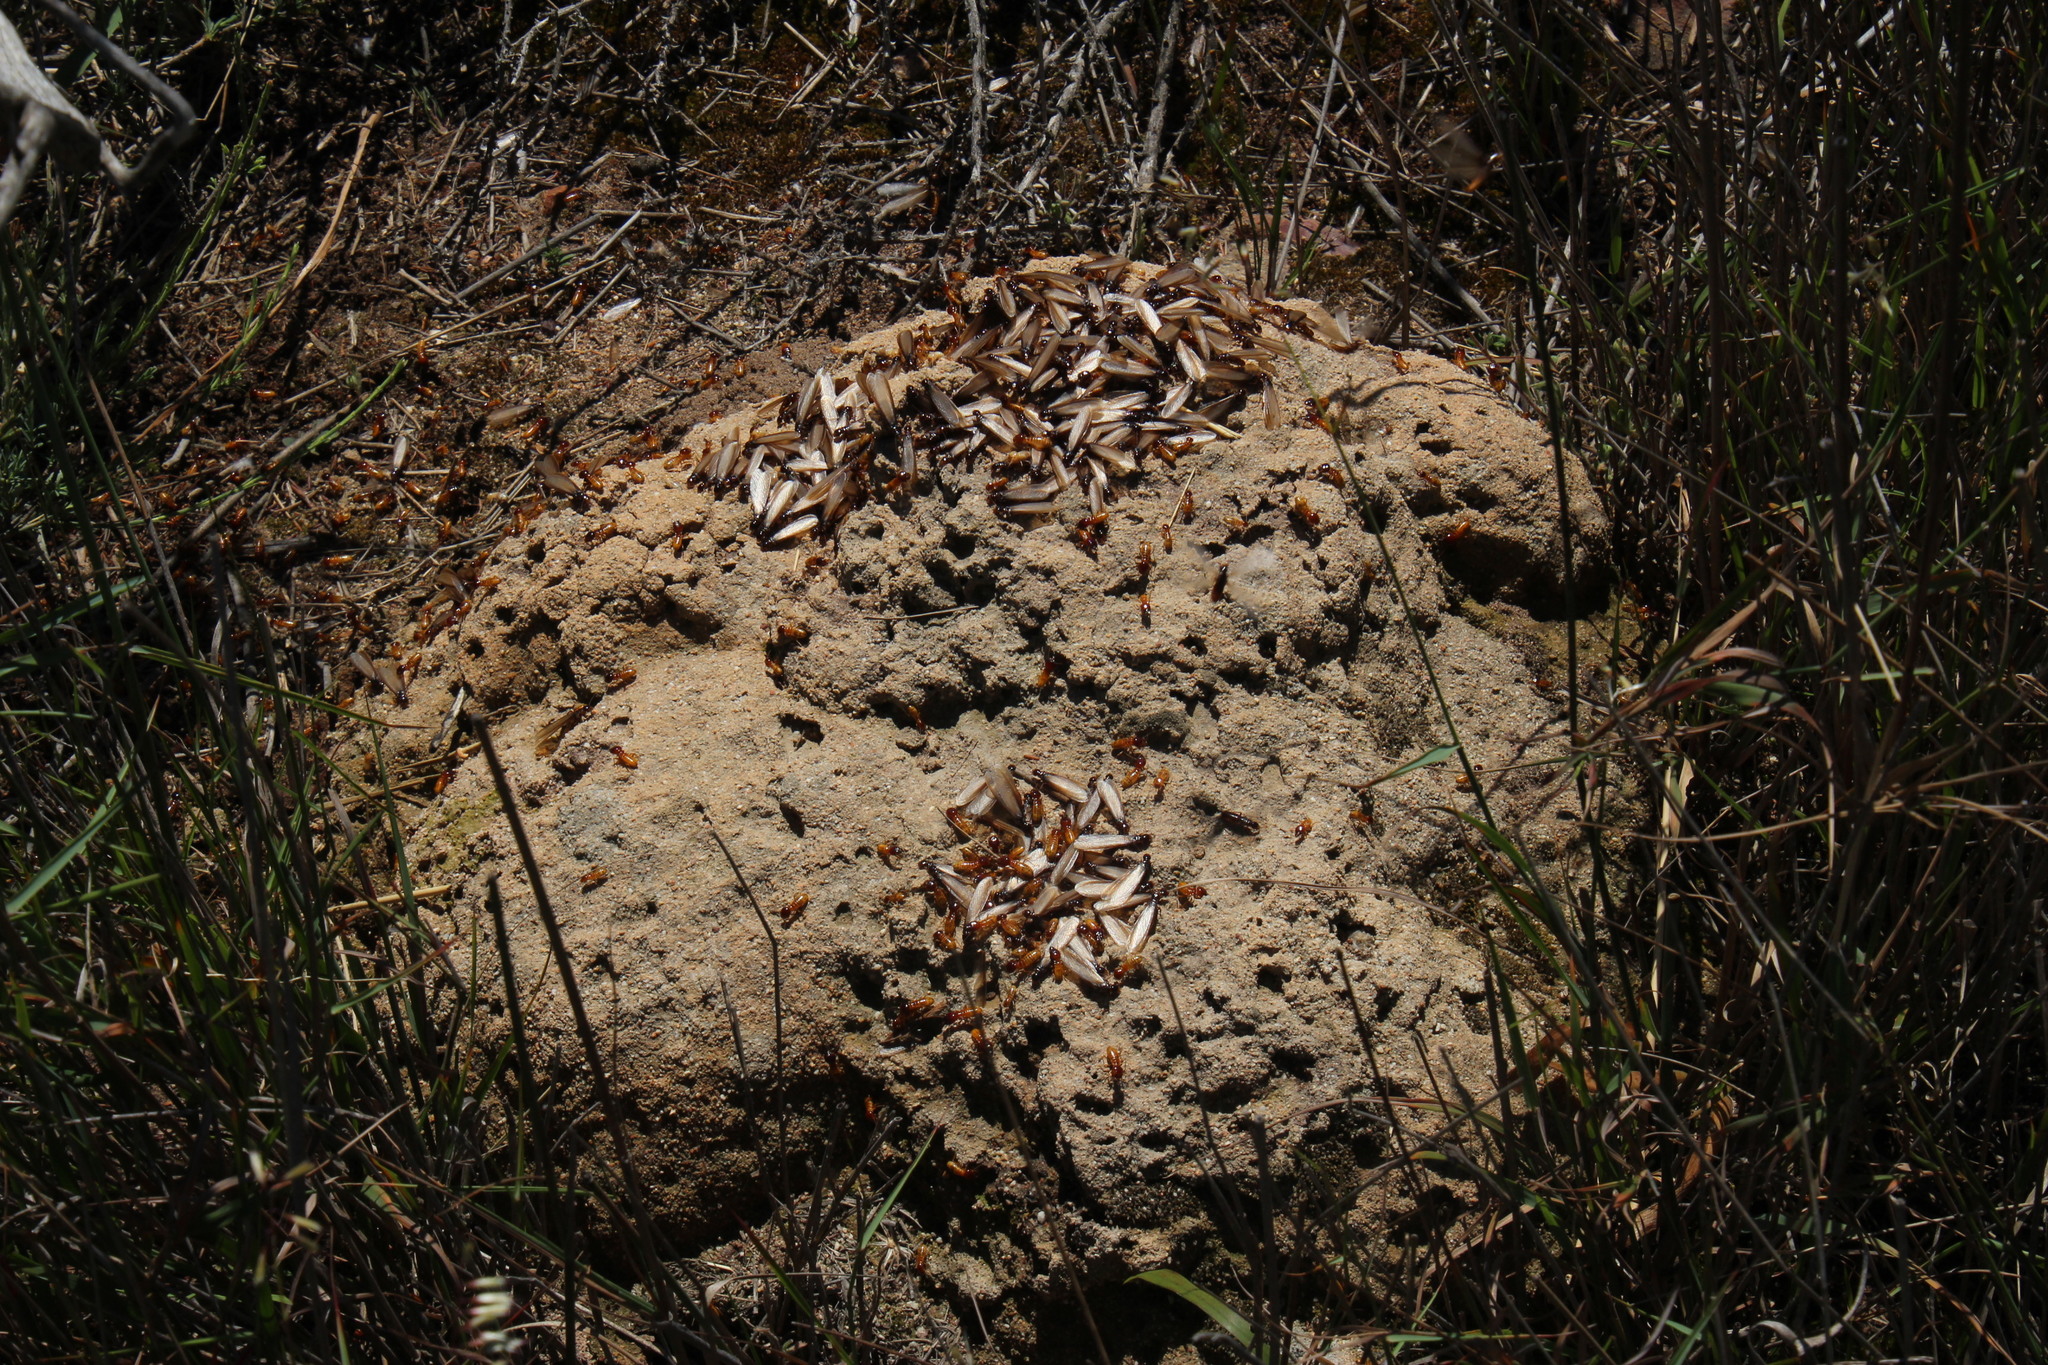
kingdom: Animalia
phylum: Arthropoda
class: Insecta
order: Blattodea
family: Hodotermitidae
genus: Microhodotermes
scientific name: Microhodotermes viator
